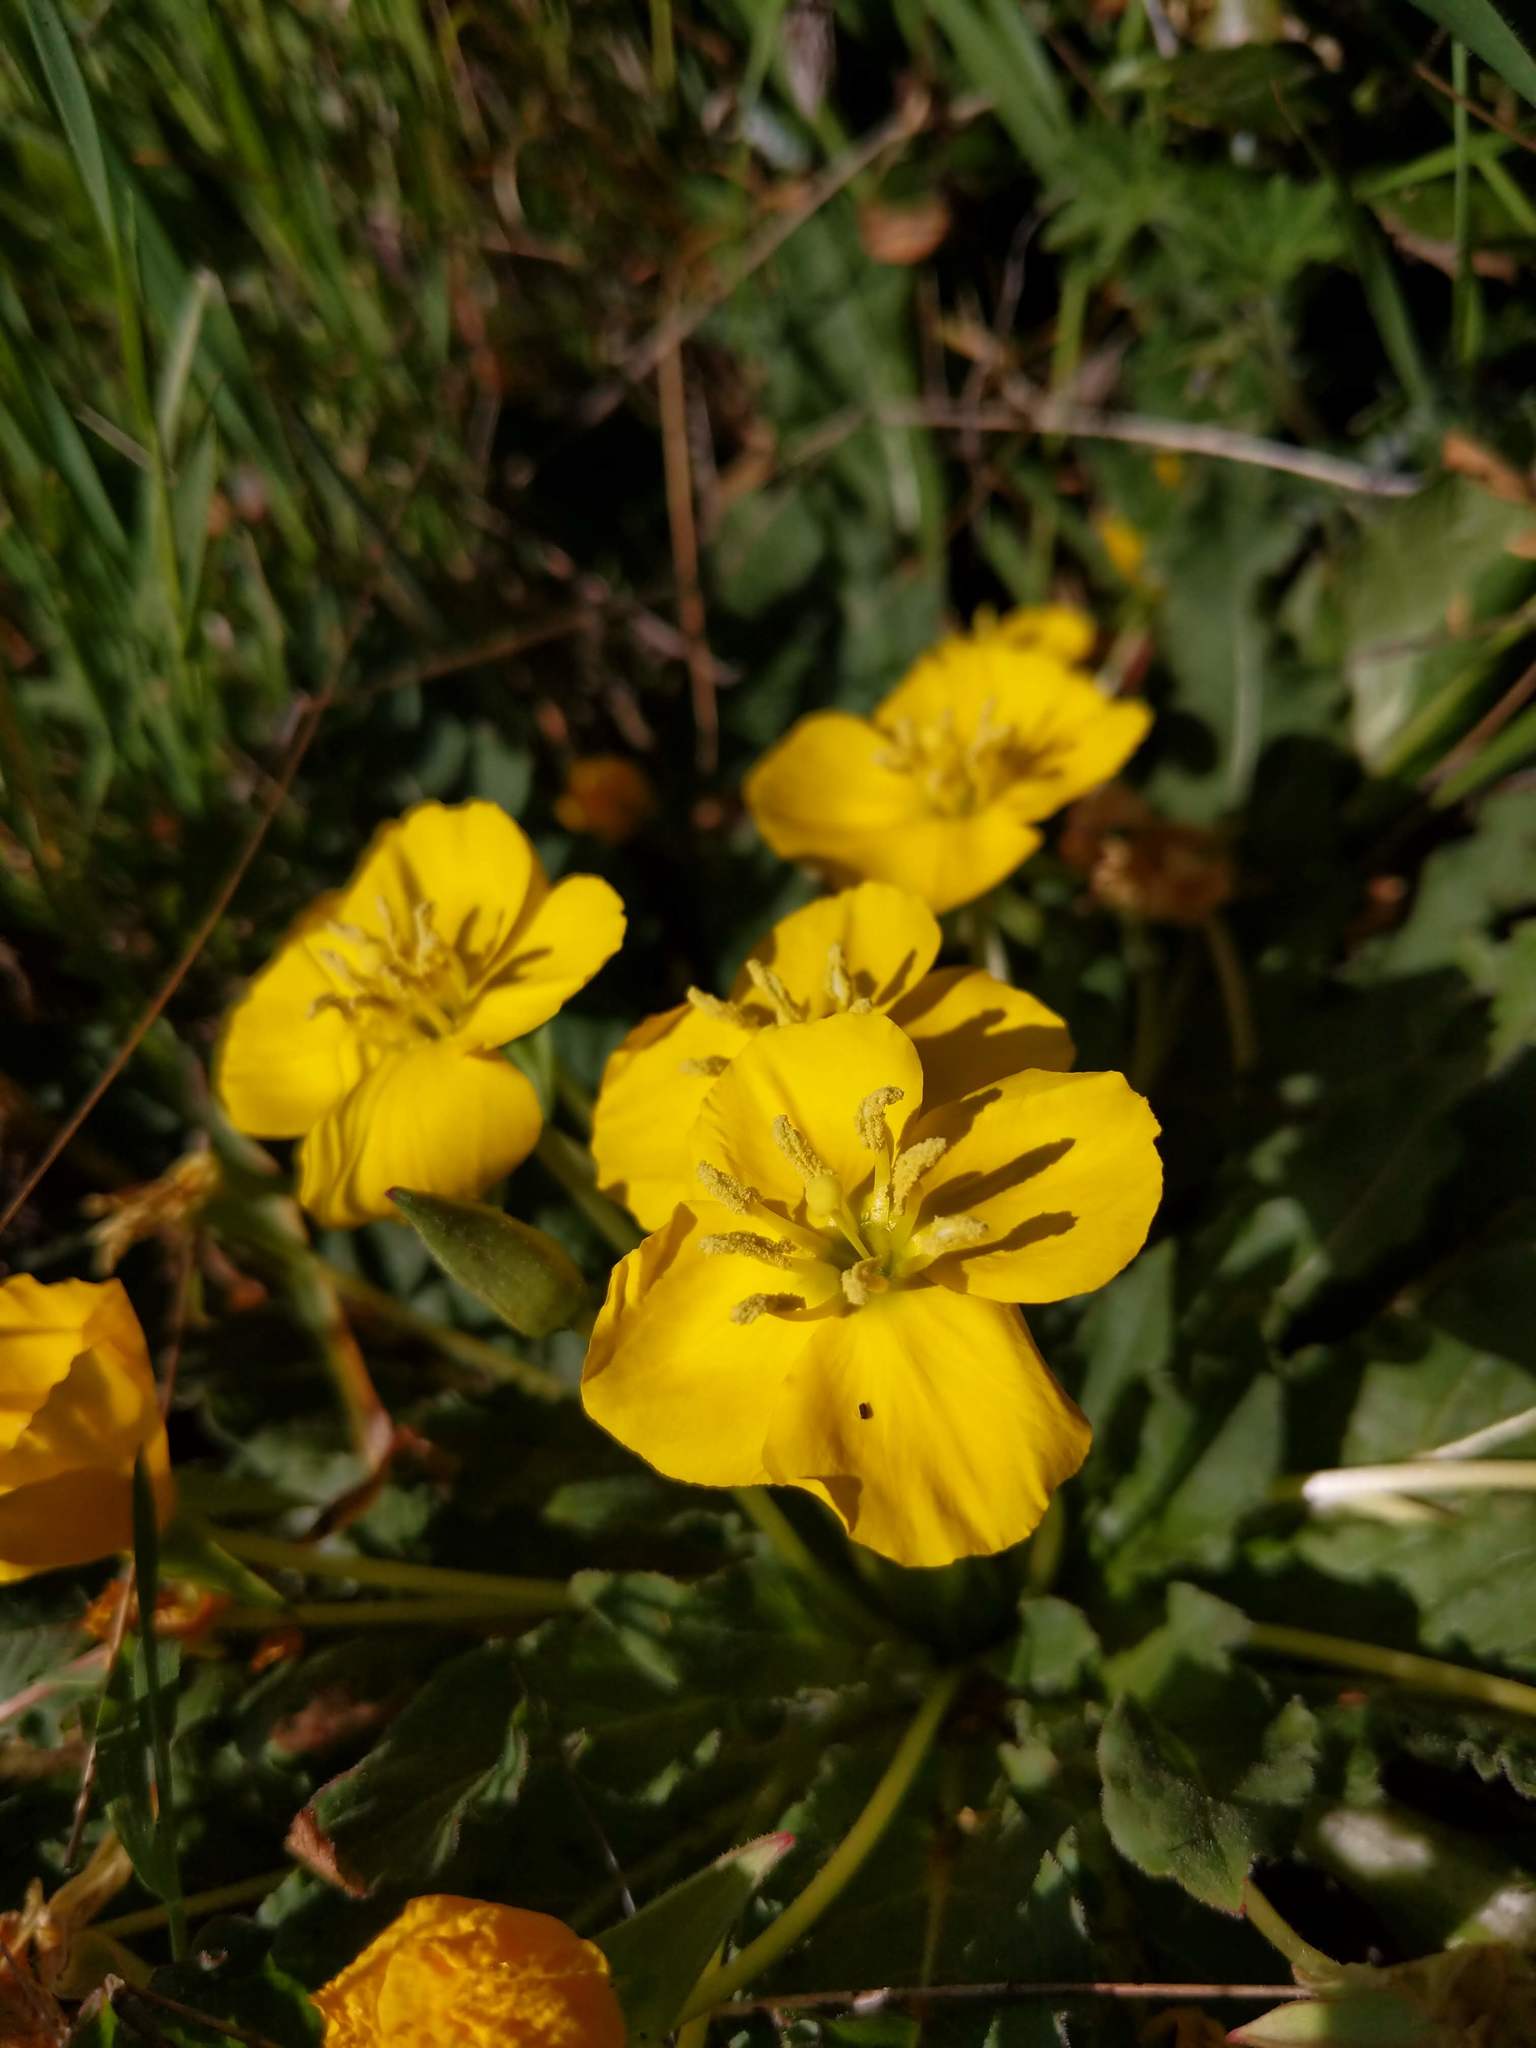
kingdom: Plantae
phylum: Tracheophyta
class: Magnoliopsida
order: Myrtales
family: Onagraceae
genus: Taraxia
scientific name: Taraxia ovata
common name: Goldeneggs
